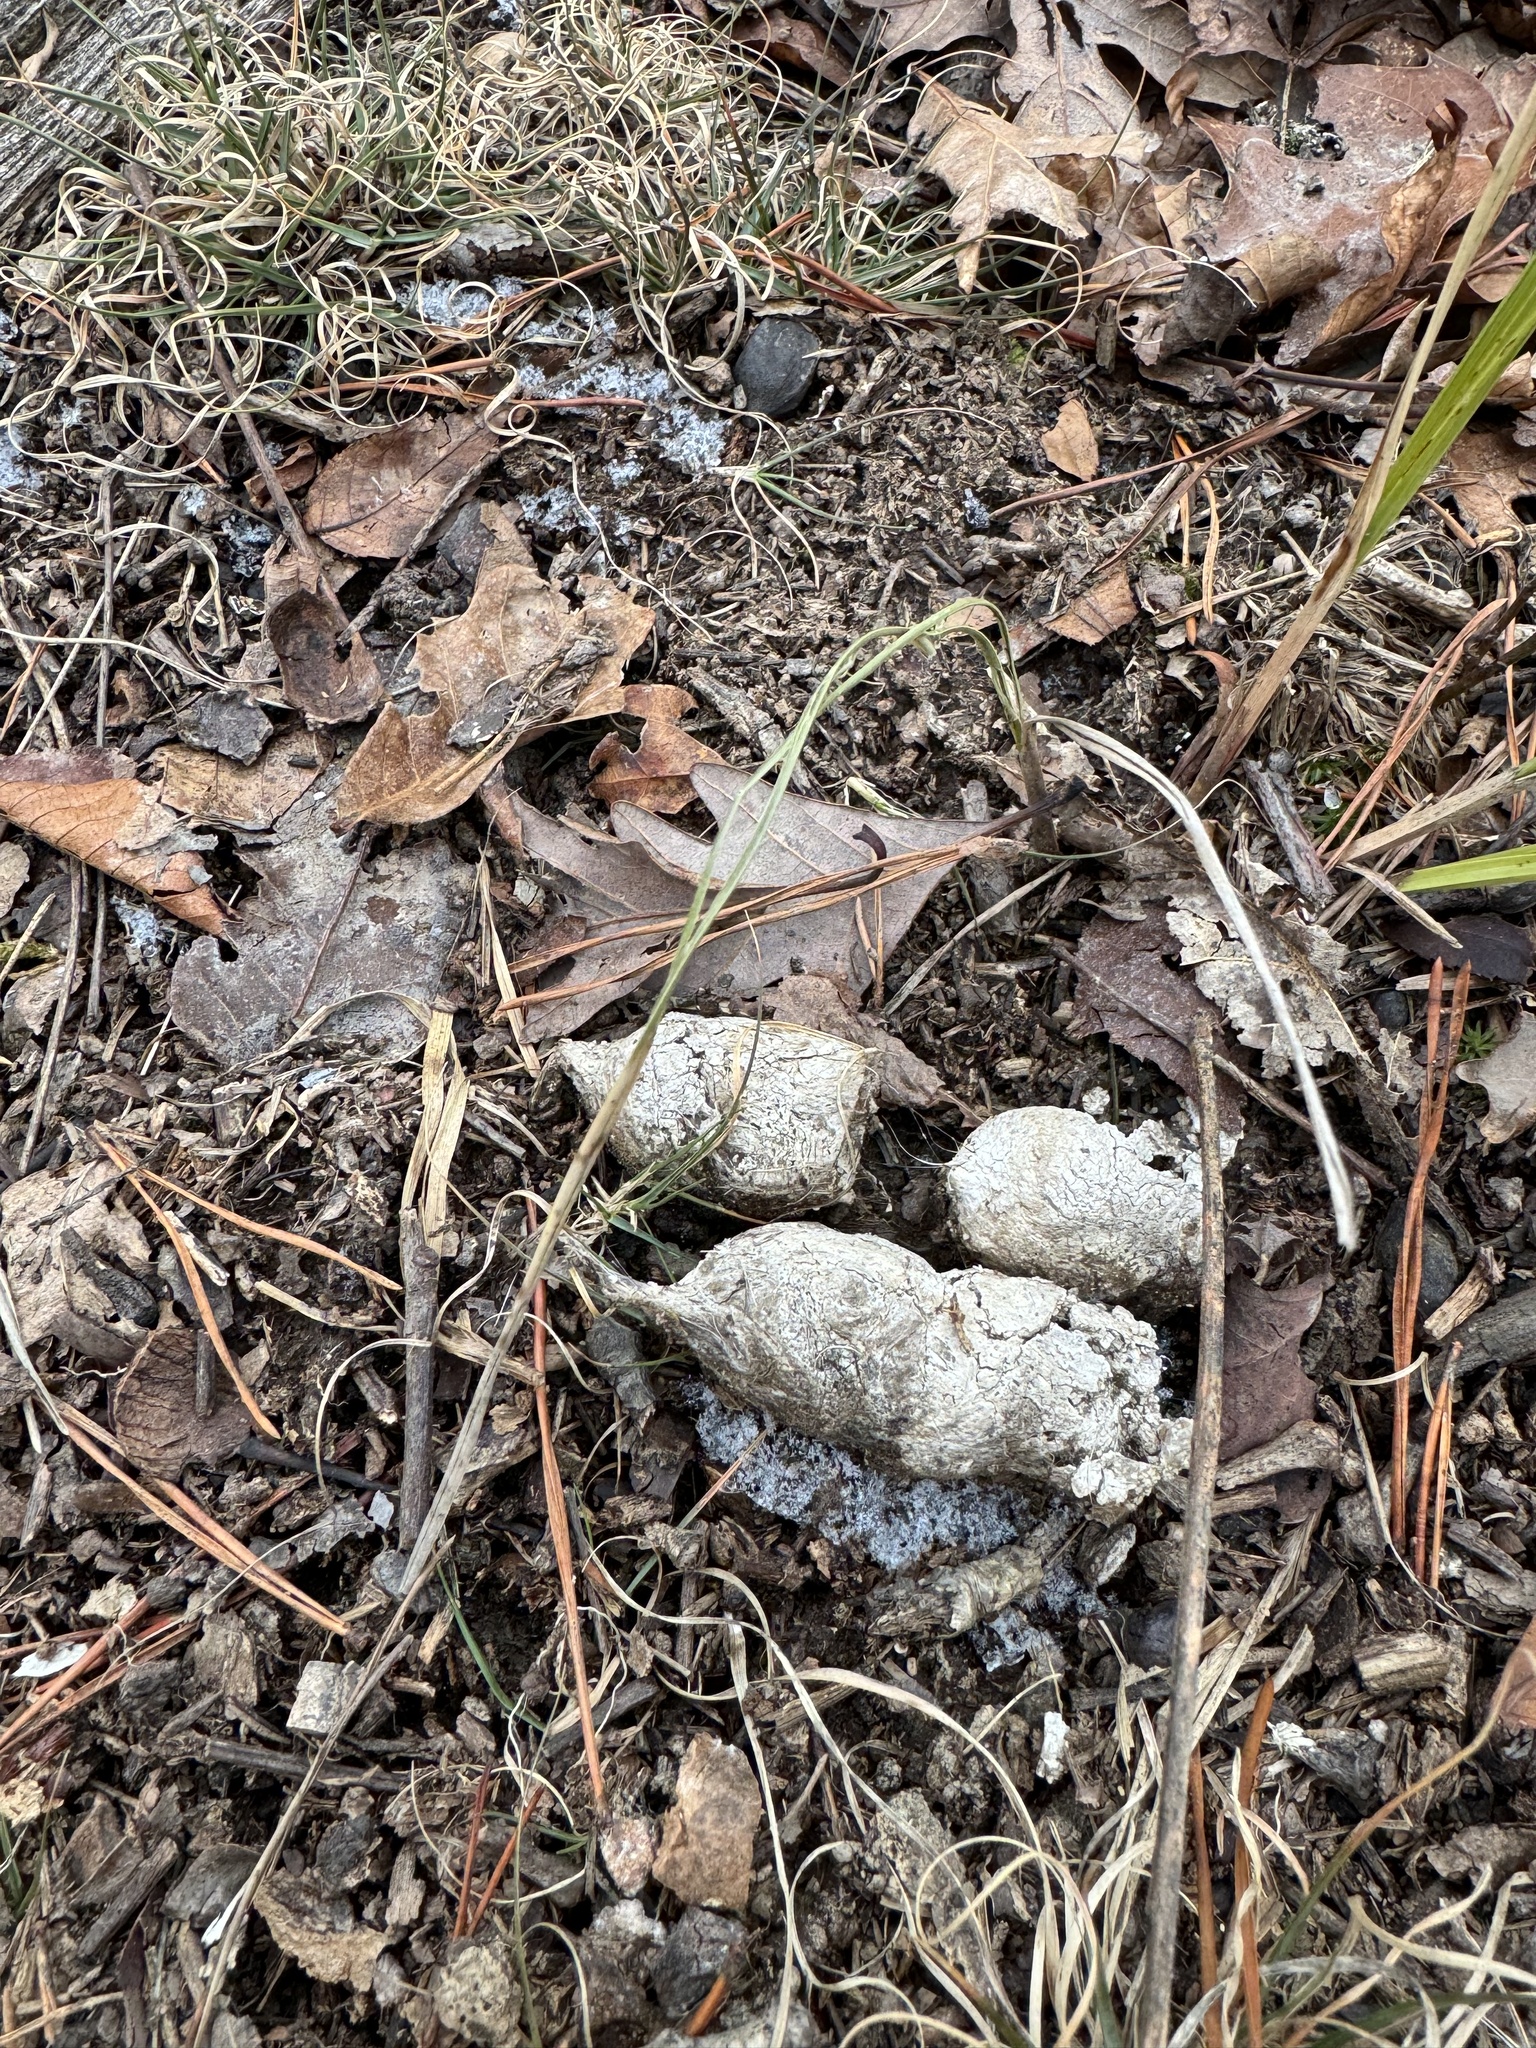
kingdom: Animalia
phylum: Chordata
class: Mammalia
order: Carnivora
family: Felidae
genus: Lynx
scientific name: Lynx rufus
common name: Bobcat
